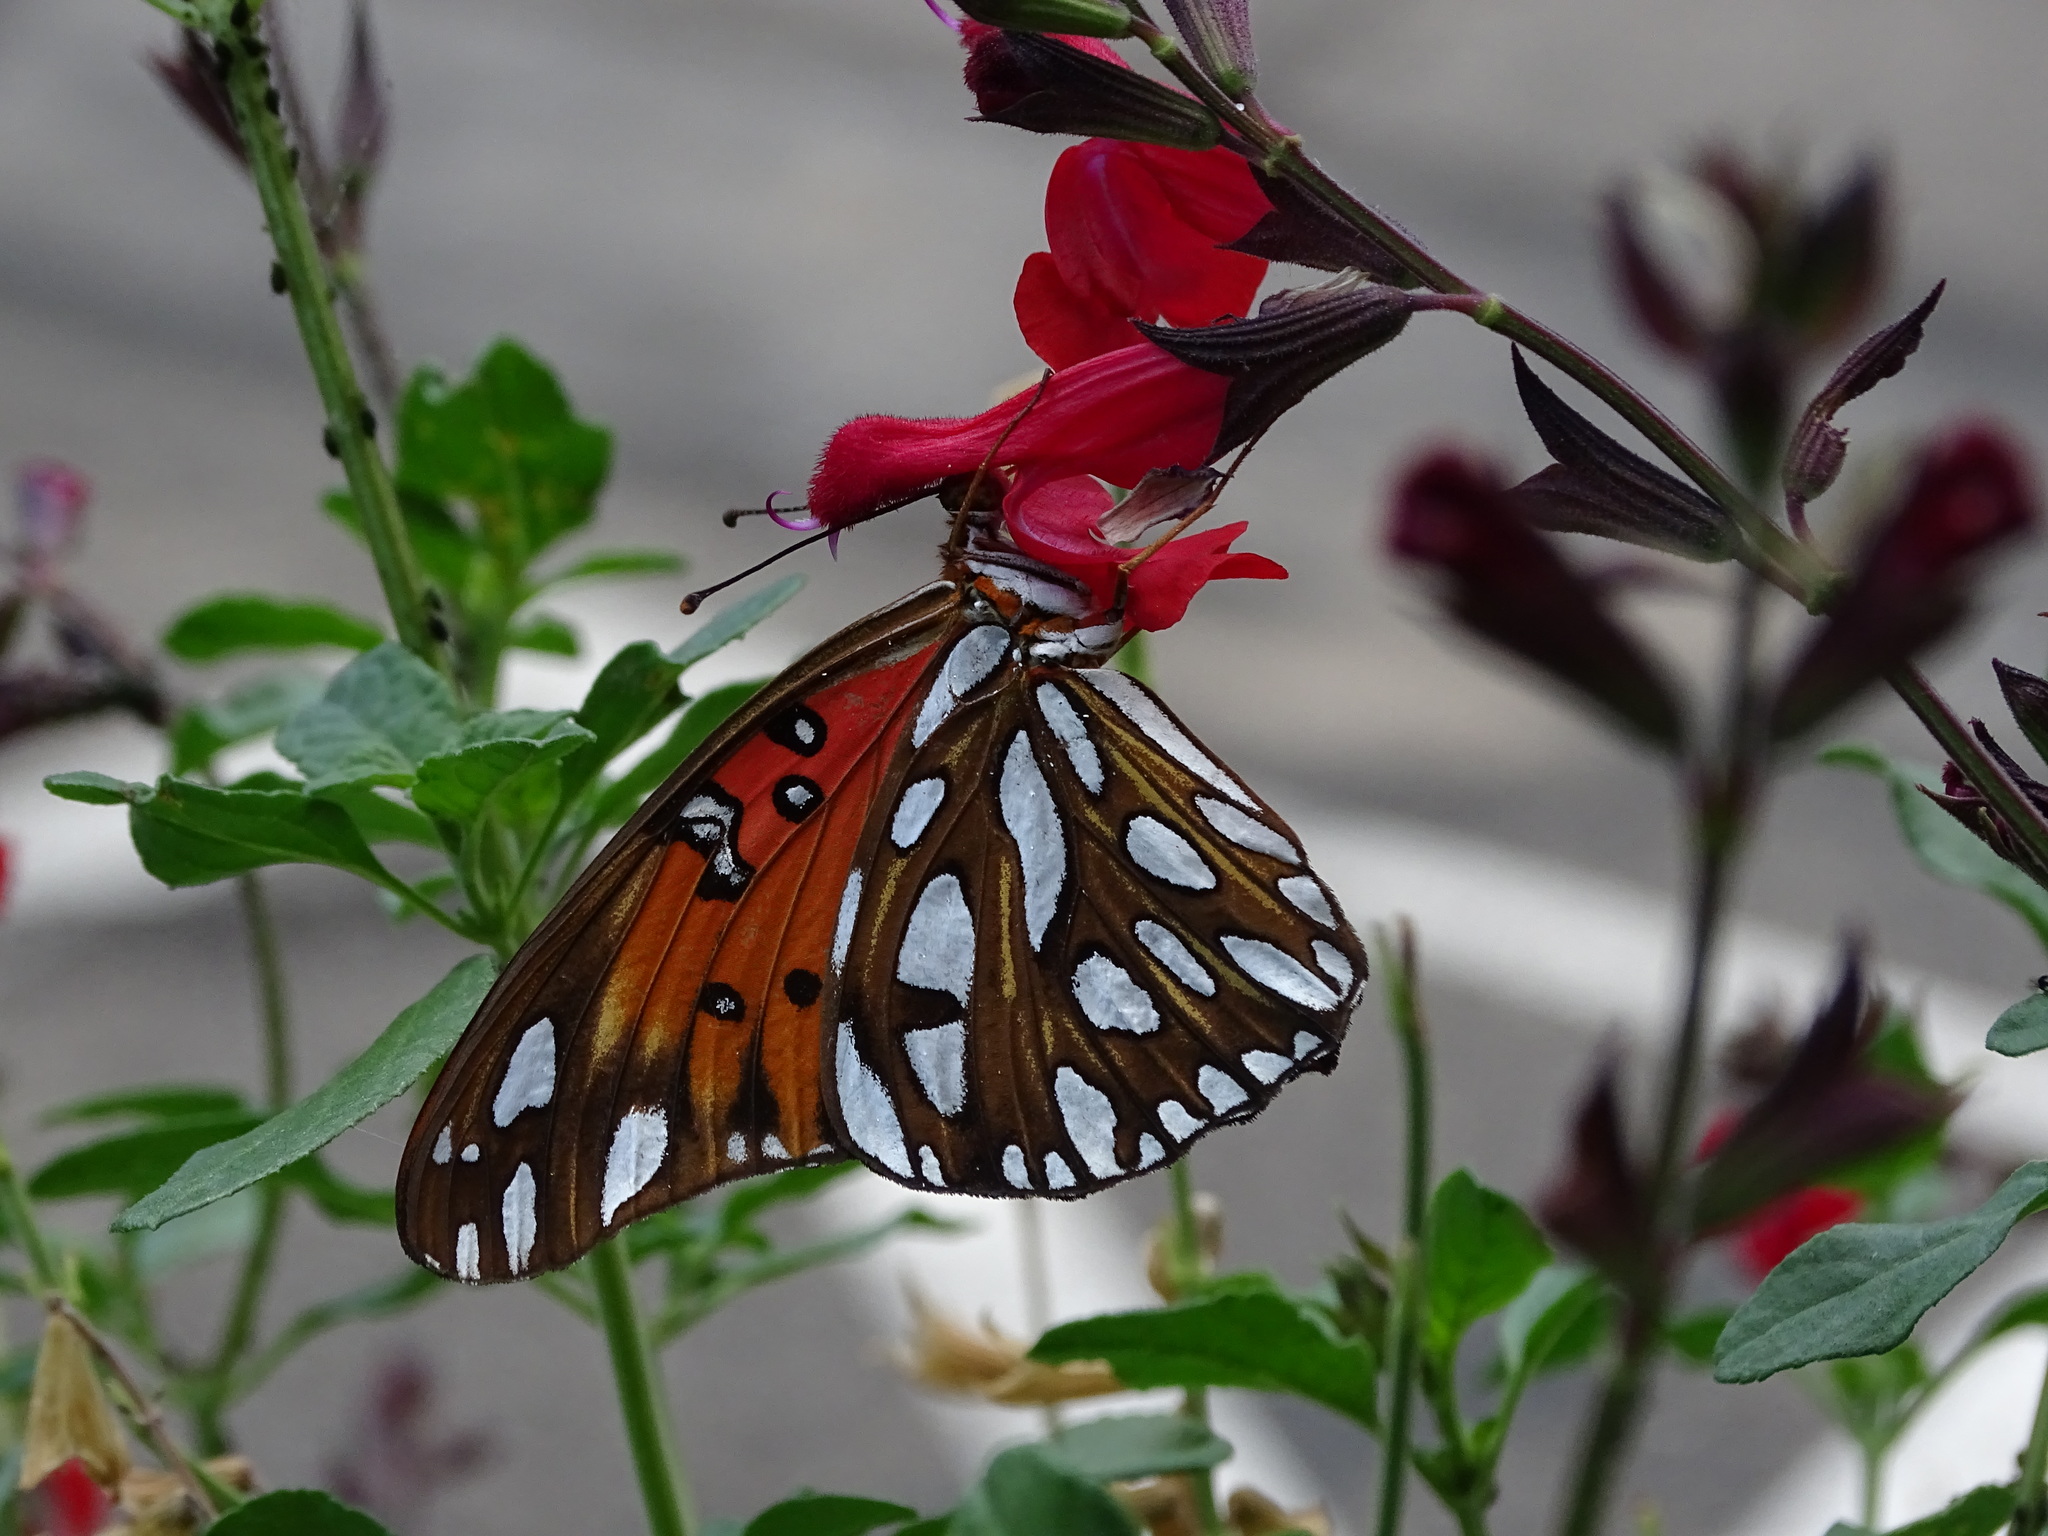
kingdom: Animalia
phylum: Arthropoda
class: Insecta
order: Lepidoptera
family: Nymphalidae
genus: Dione
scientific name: Dione vanillae
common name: Gulf fritillary
